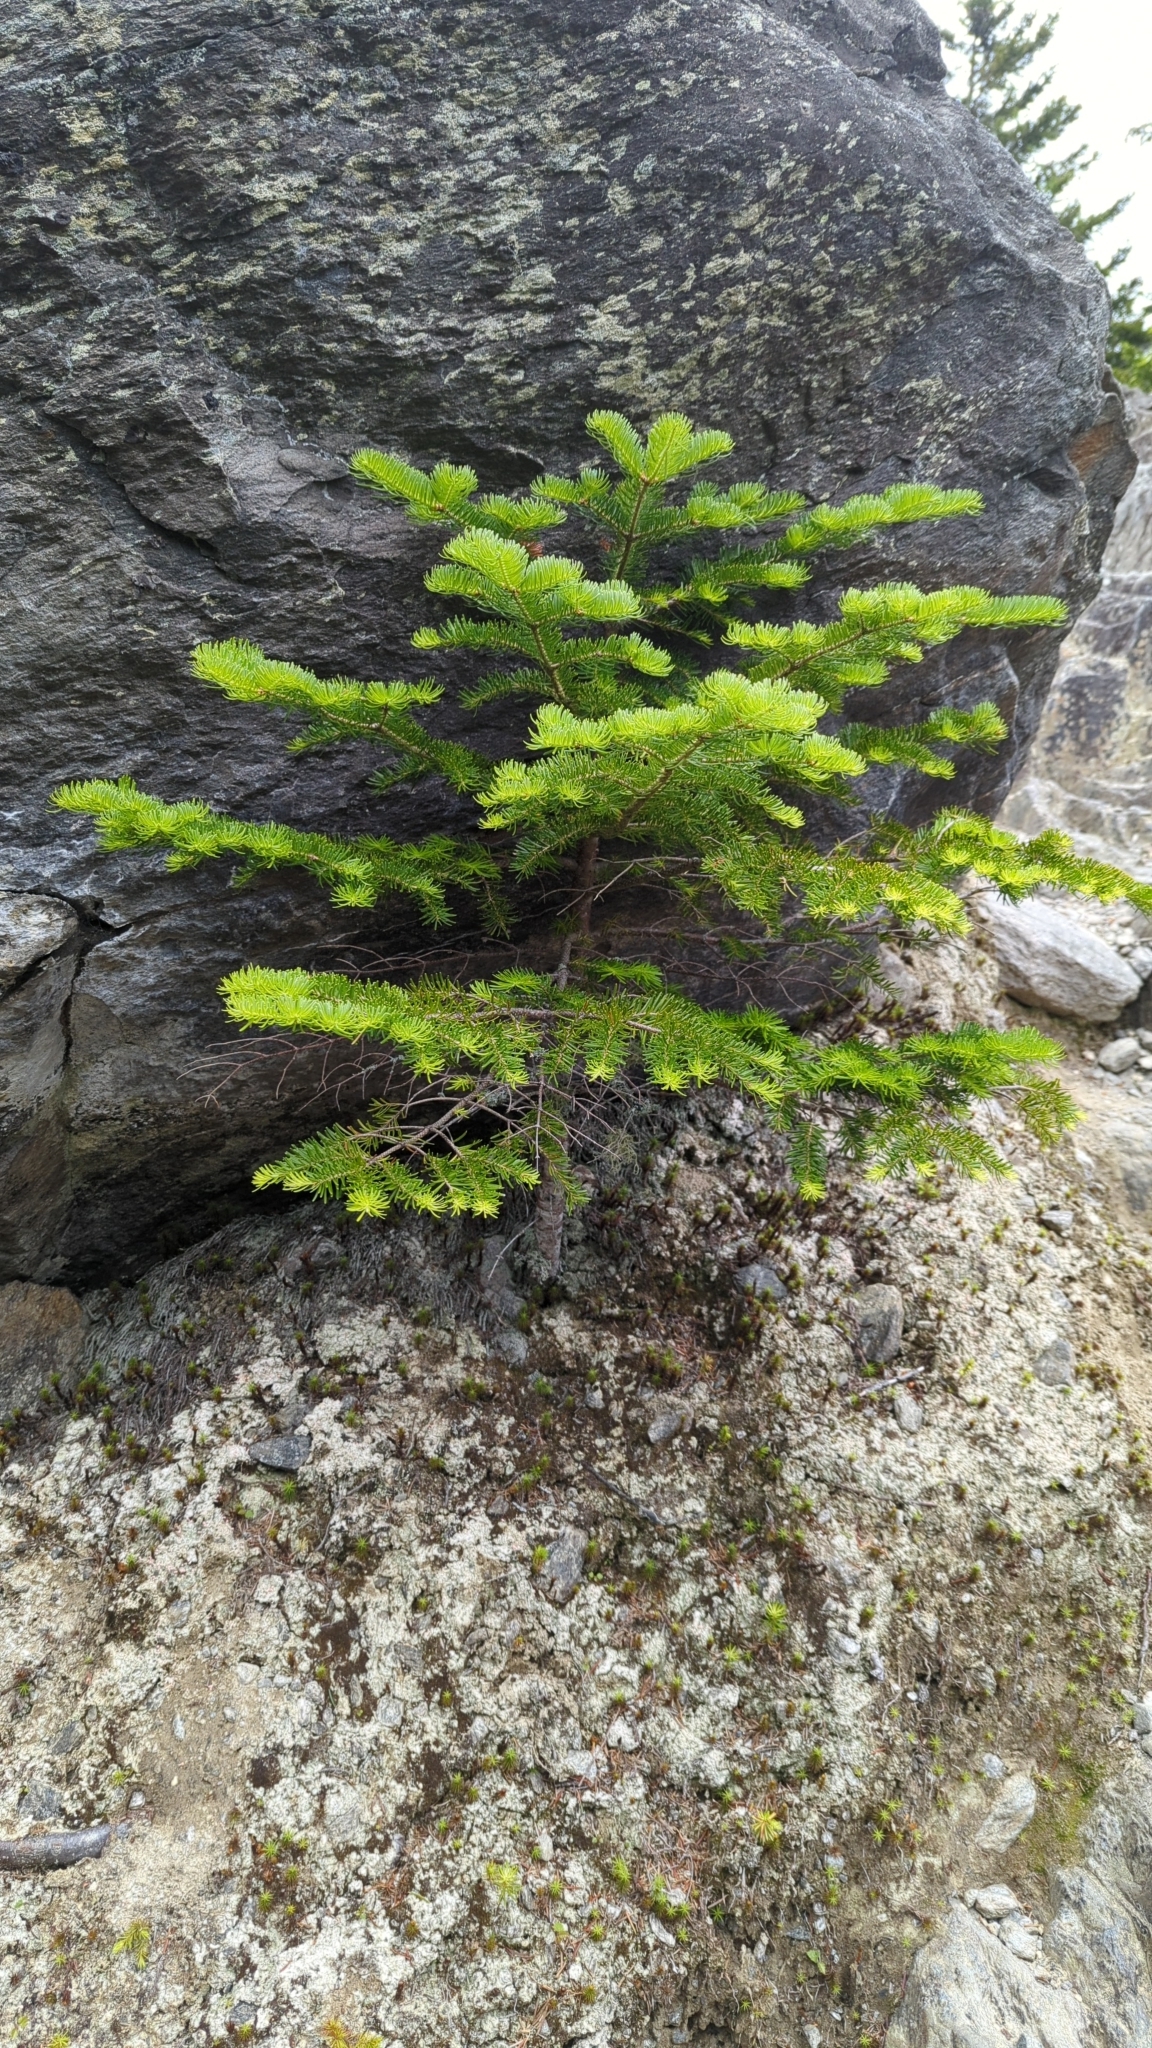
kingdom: Plantae
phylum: Tracheophyta
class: Pinopsida
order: Pinales
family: Pinaceae
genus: Abies
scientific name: Abies balsamea
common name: Balsam fir
